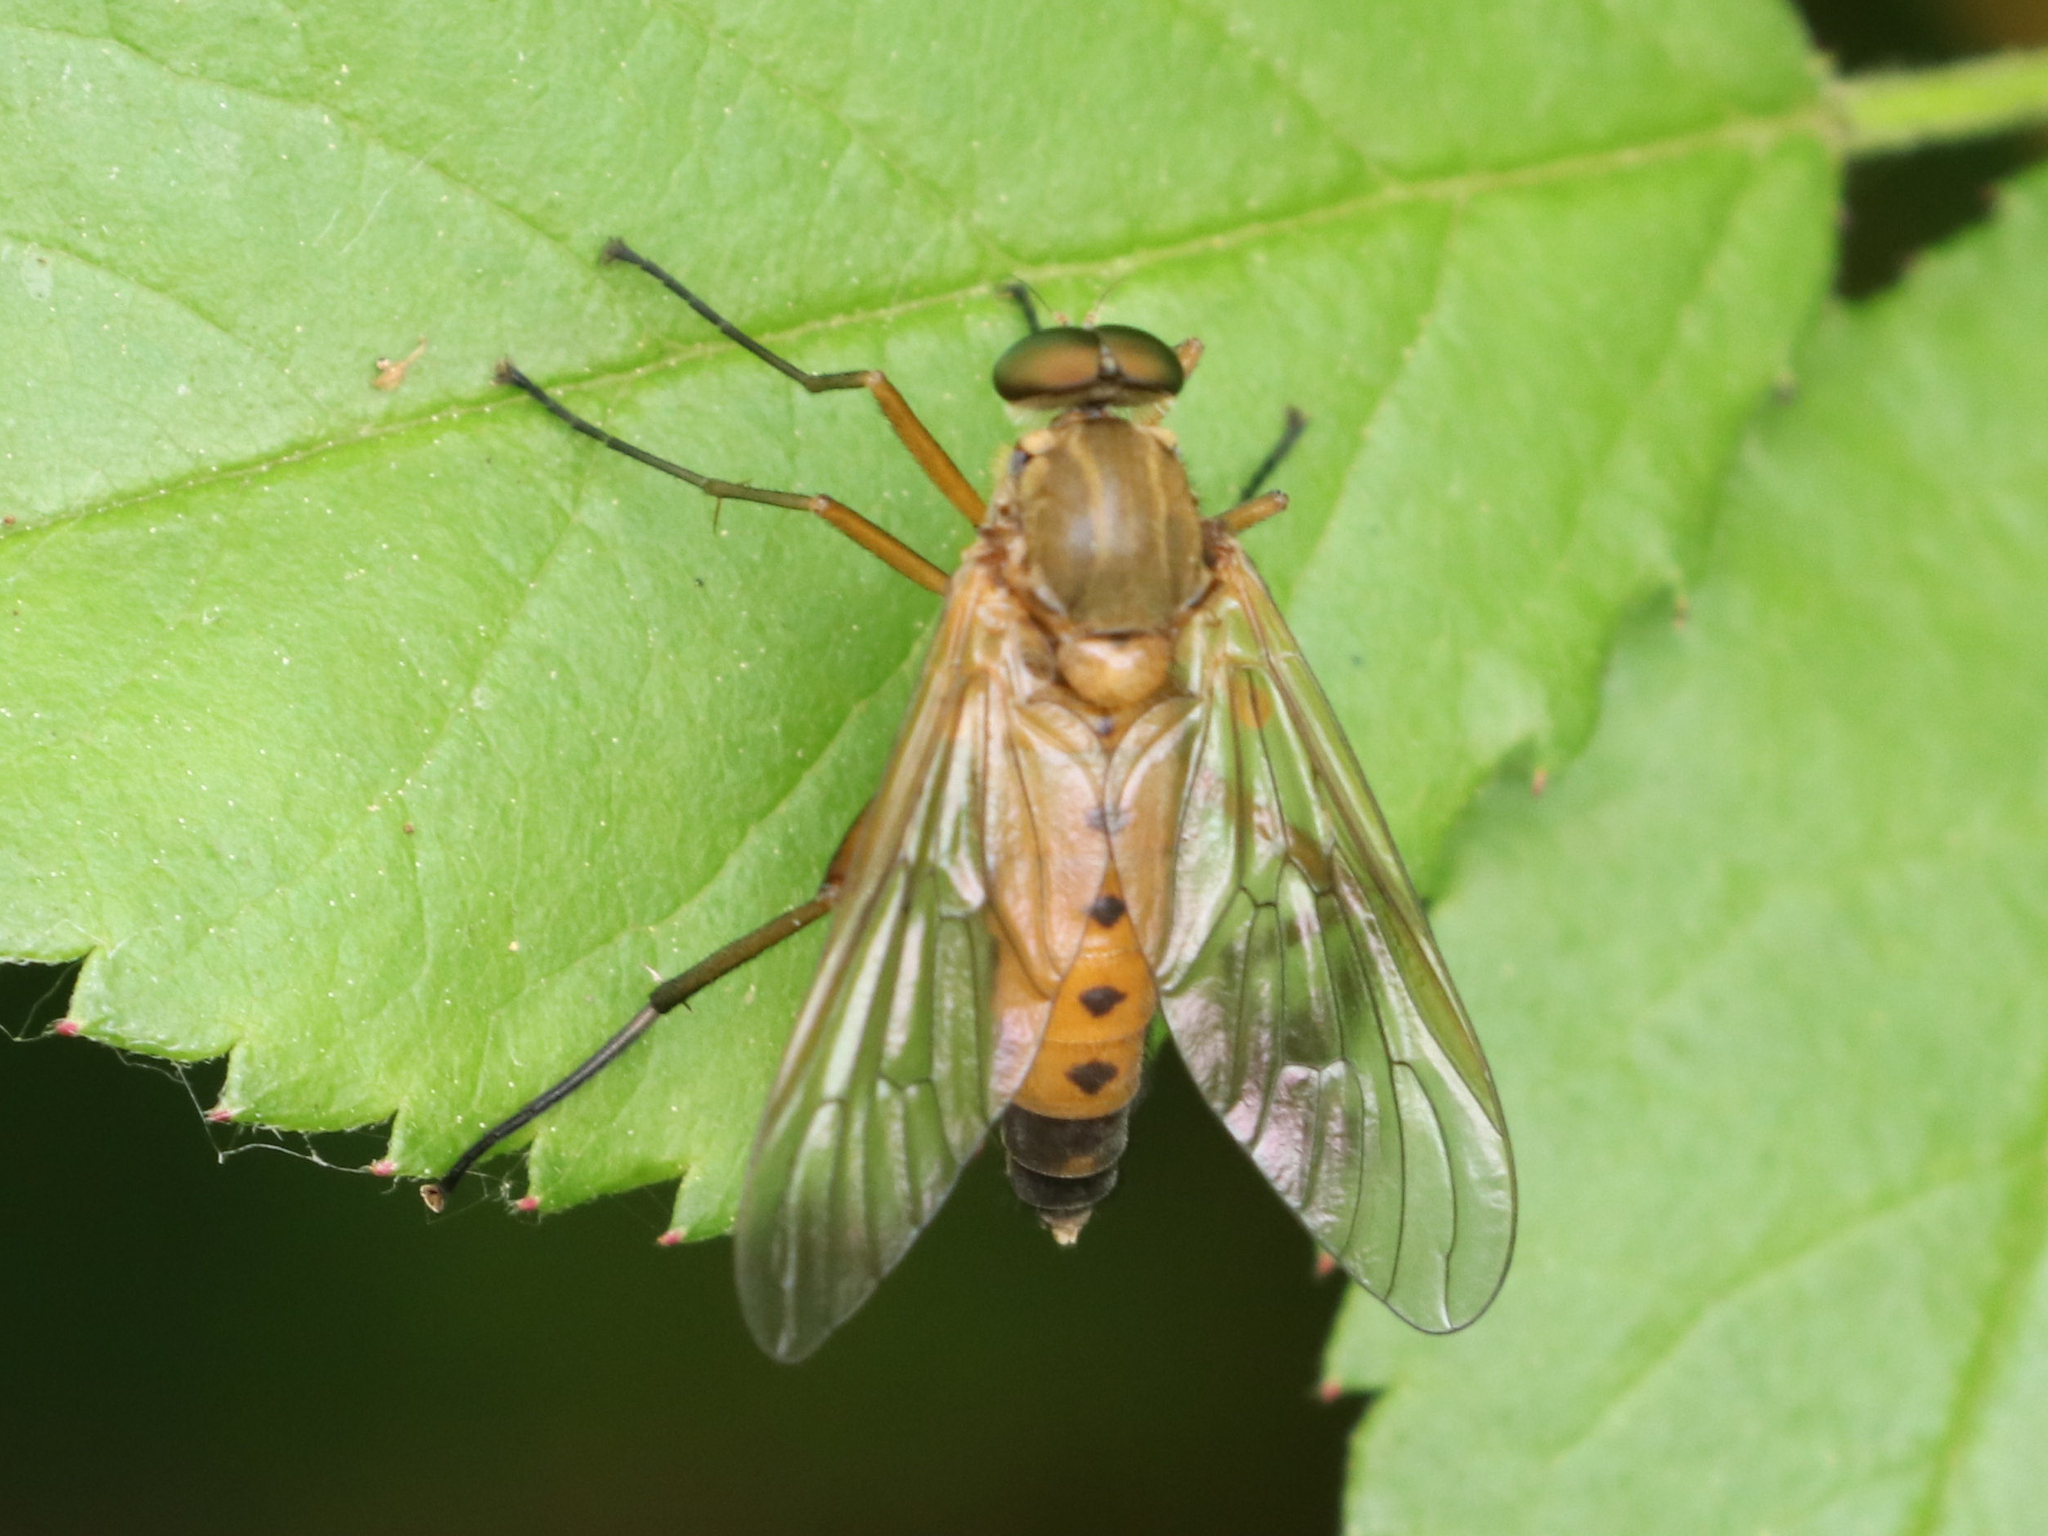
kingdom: Animalia
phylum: Arthropoda
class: Insecta
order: Diptera
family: Rhagionidae
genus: Rhagio
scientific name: Rhagio tringaria
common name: Marsh snipefly
